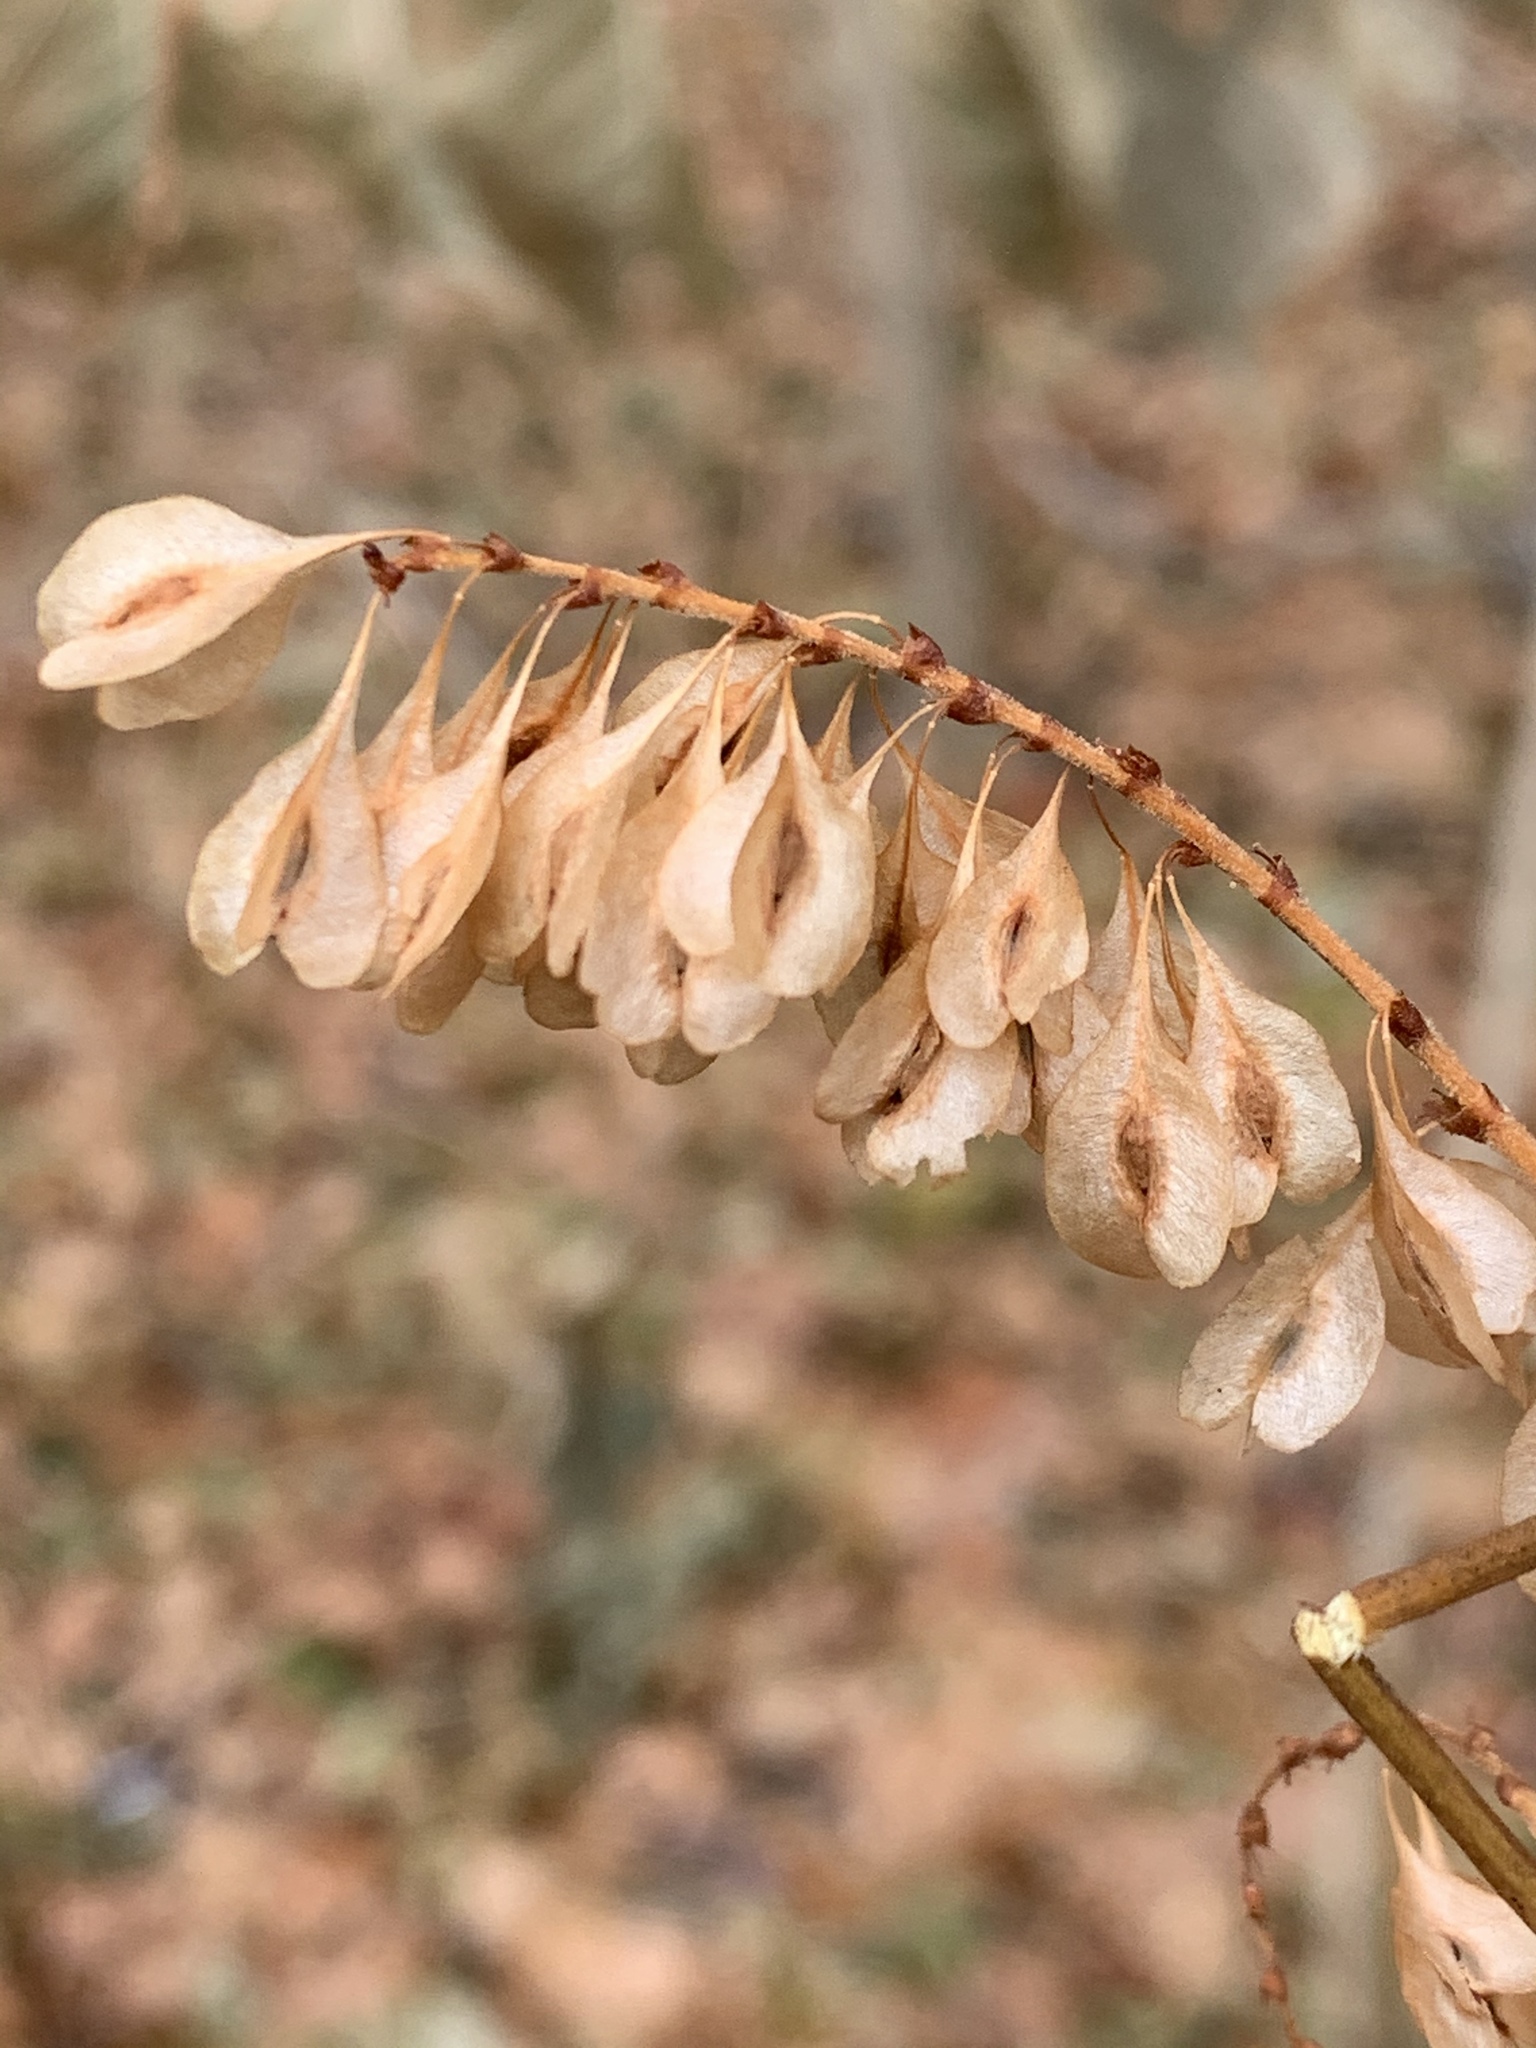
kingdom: Plantae
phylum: Tracheophyta
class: Magnoliopsida
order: Caryophyllales
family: Polygonaceae
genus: Reynoutria
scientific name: Reynoutria japonica
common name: Japanese knotweed
